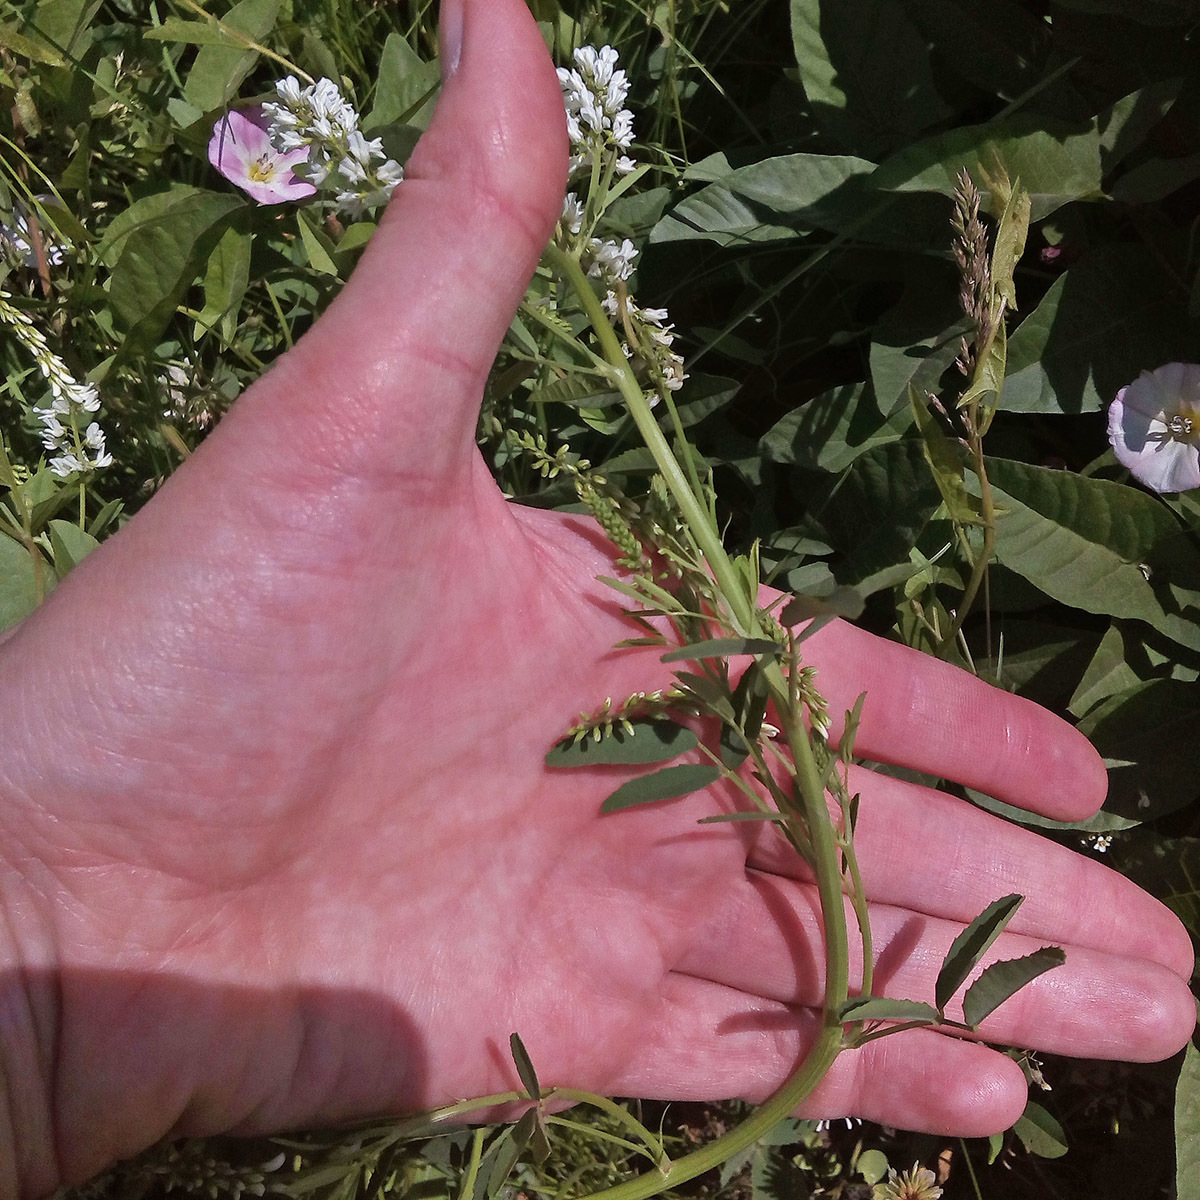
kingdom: Plantae
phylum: Tracheophyta
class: Magnoliopsida
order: Fabales
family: Fabaceae
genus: Melilotus
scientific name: Melilotus albus
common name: White melilot
